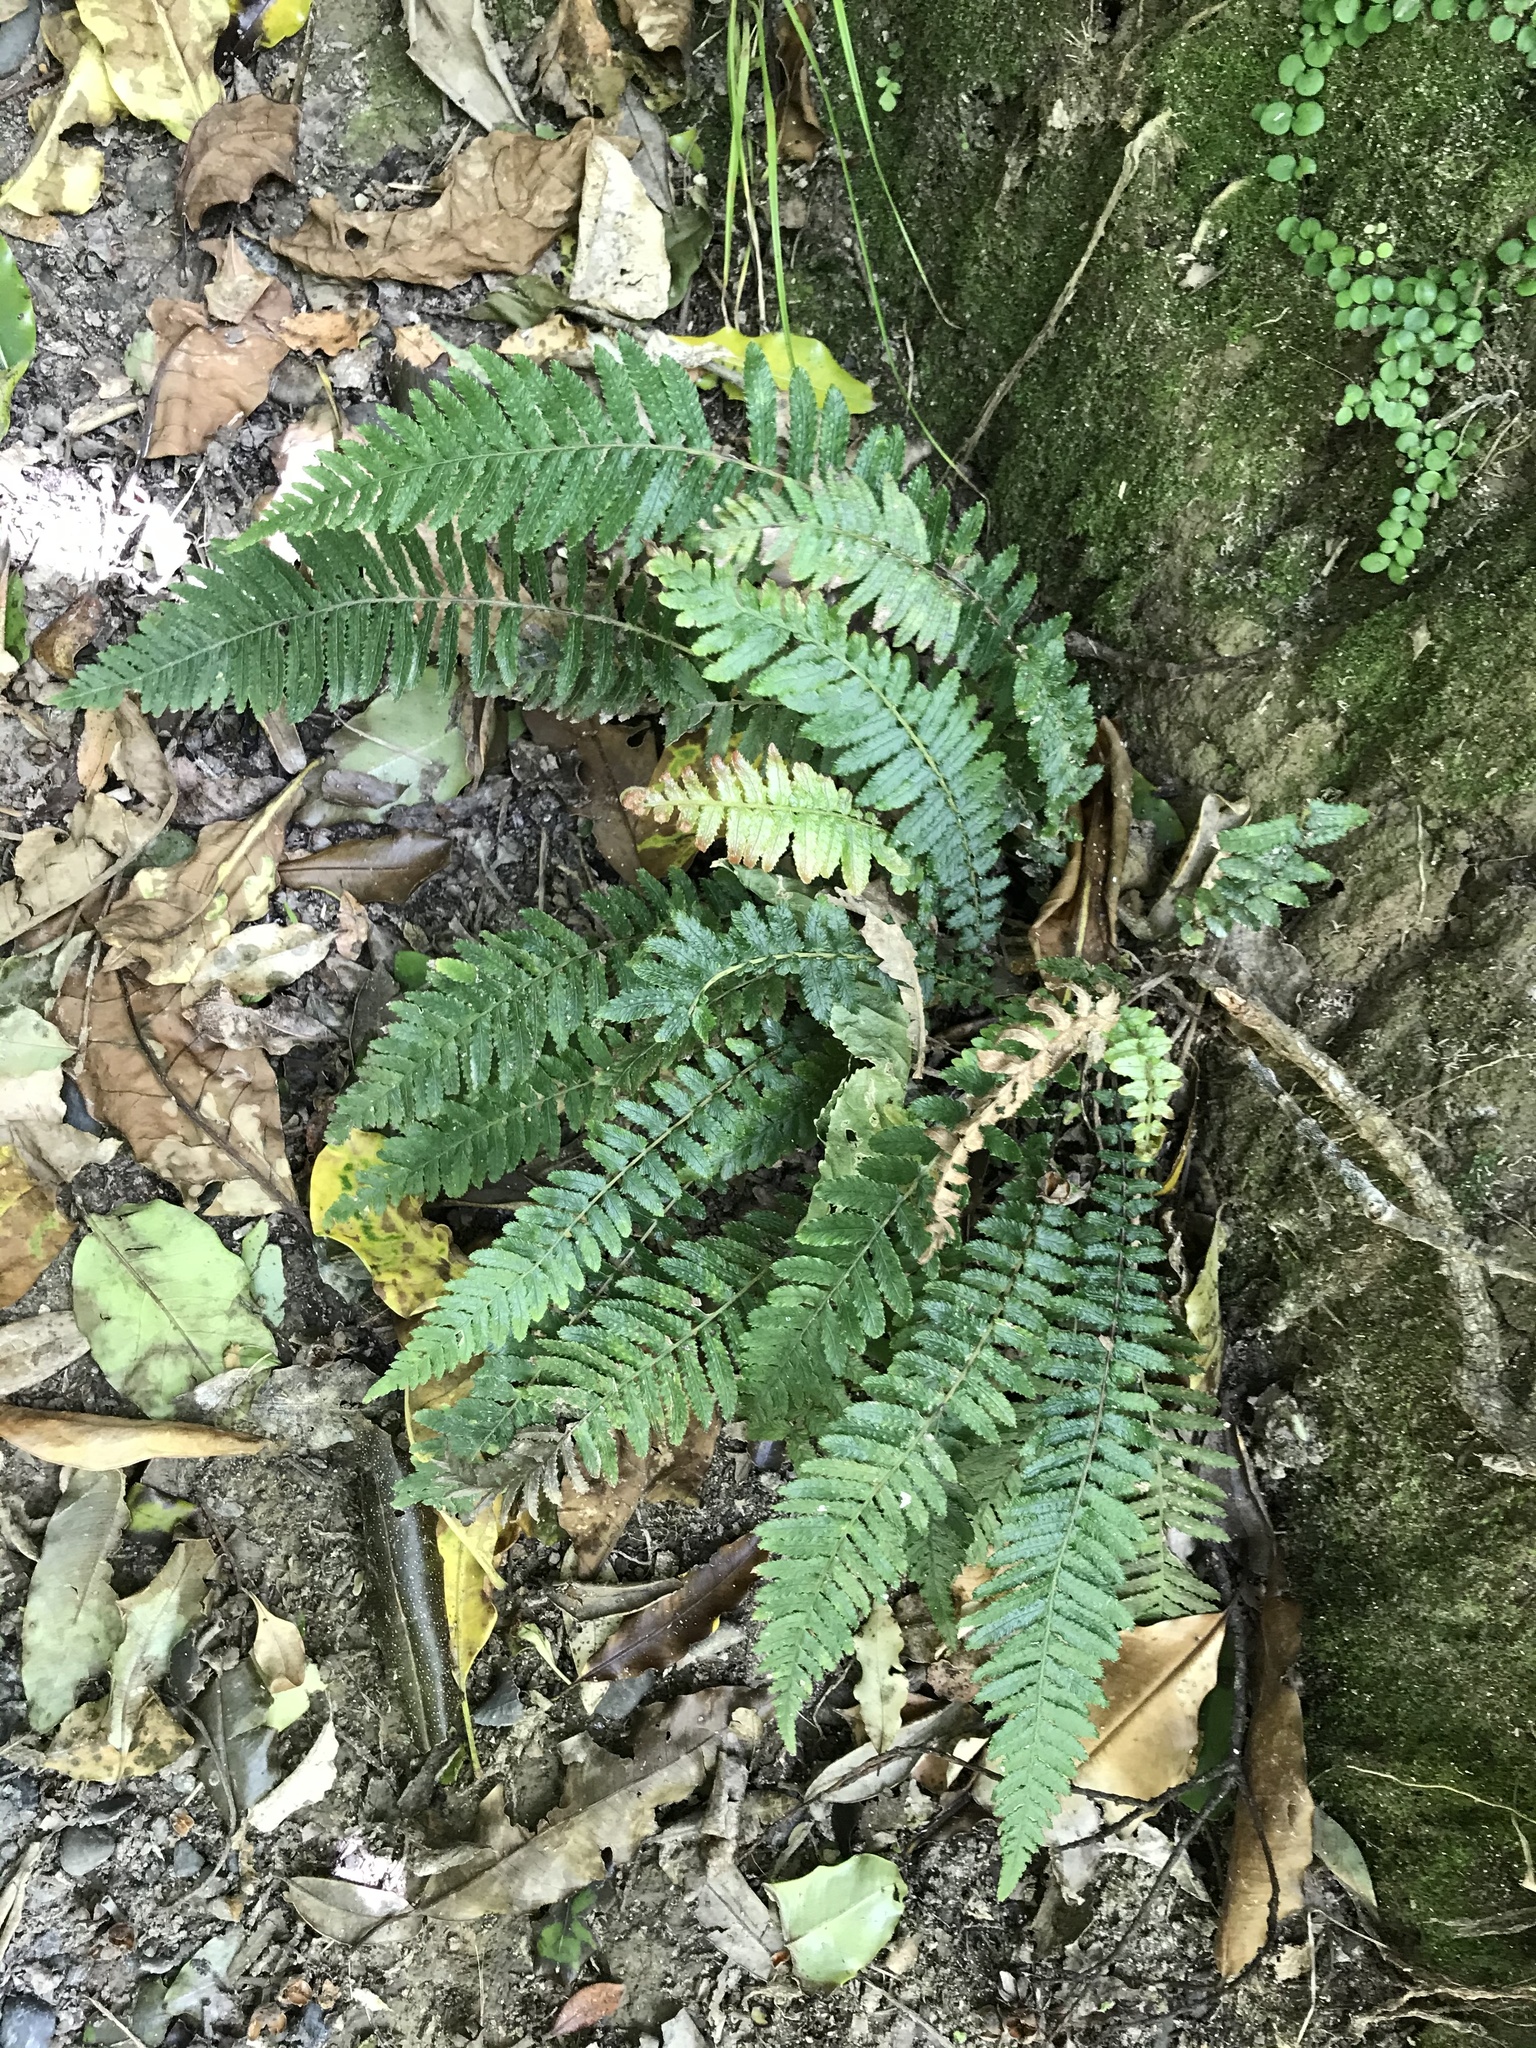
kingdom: Plantae
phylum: Tracheophyta
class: Polypodiopsida
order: Polypodiales
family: Blechnaceae
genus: Doodia
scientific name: Doodia australis
